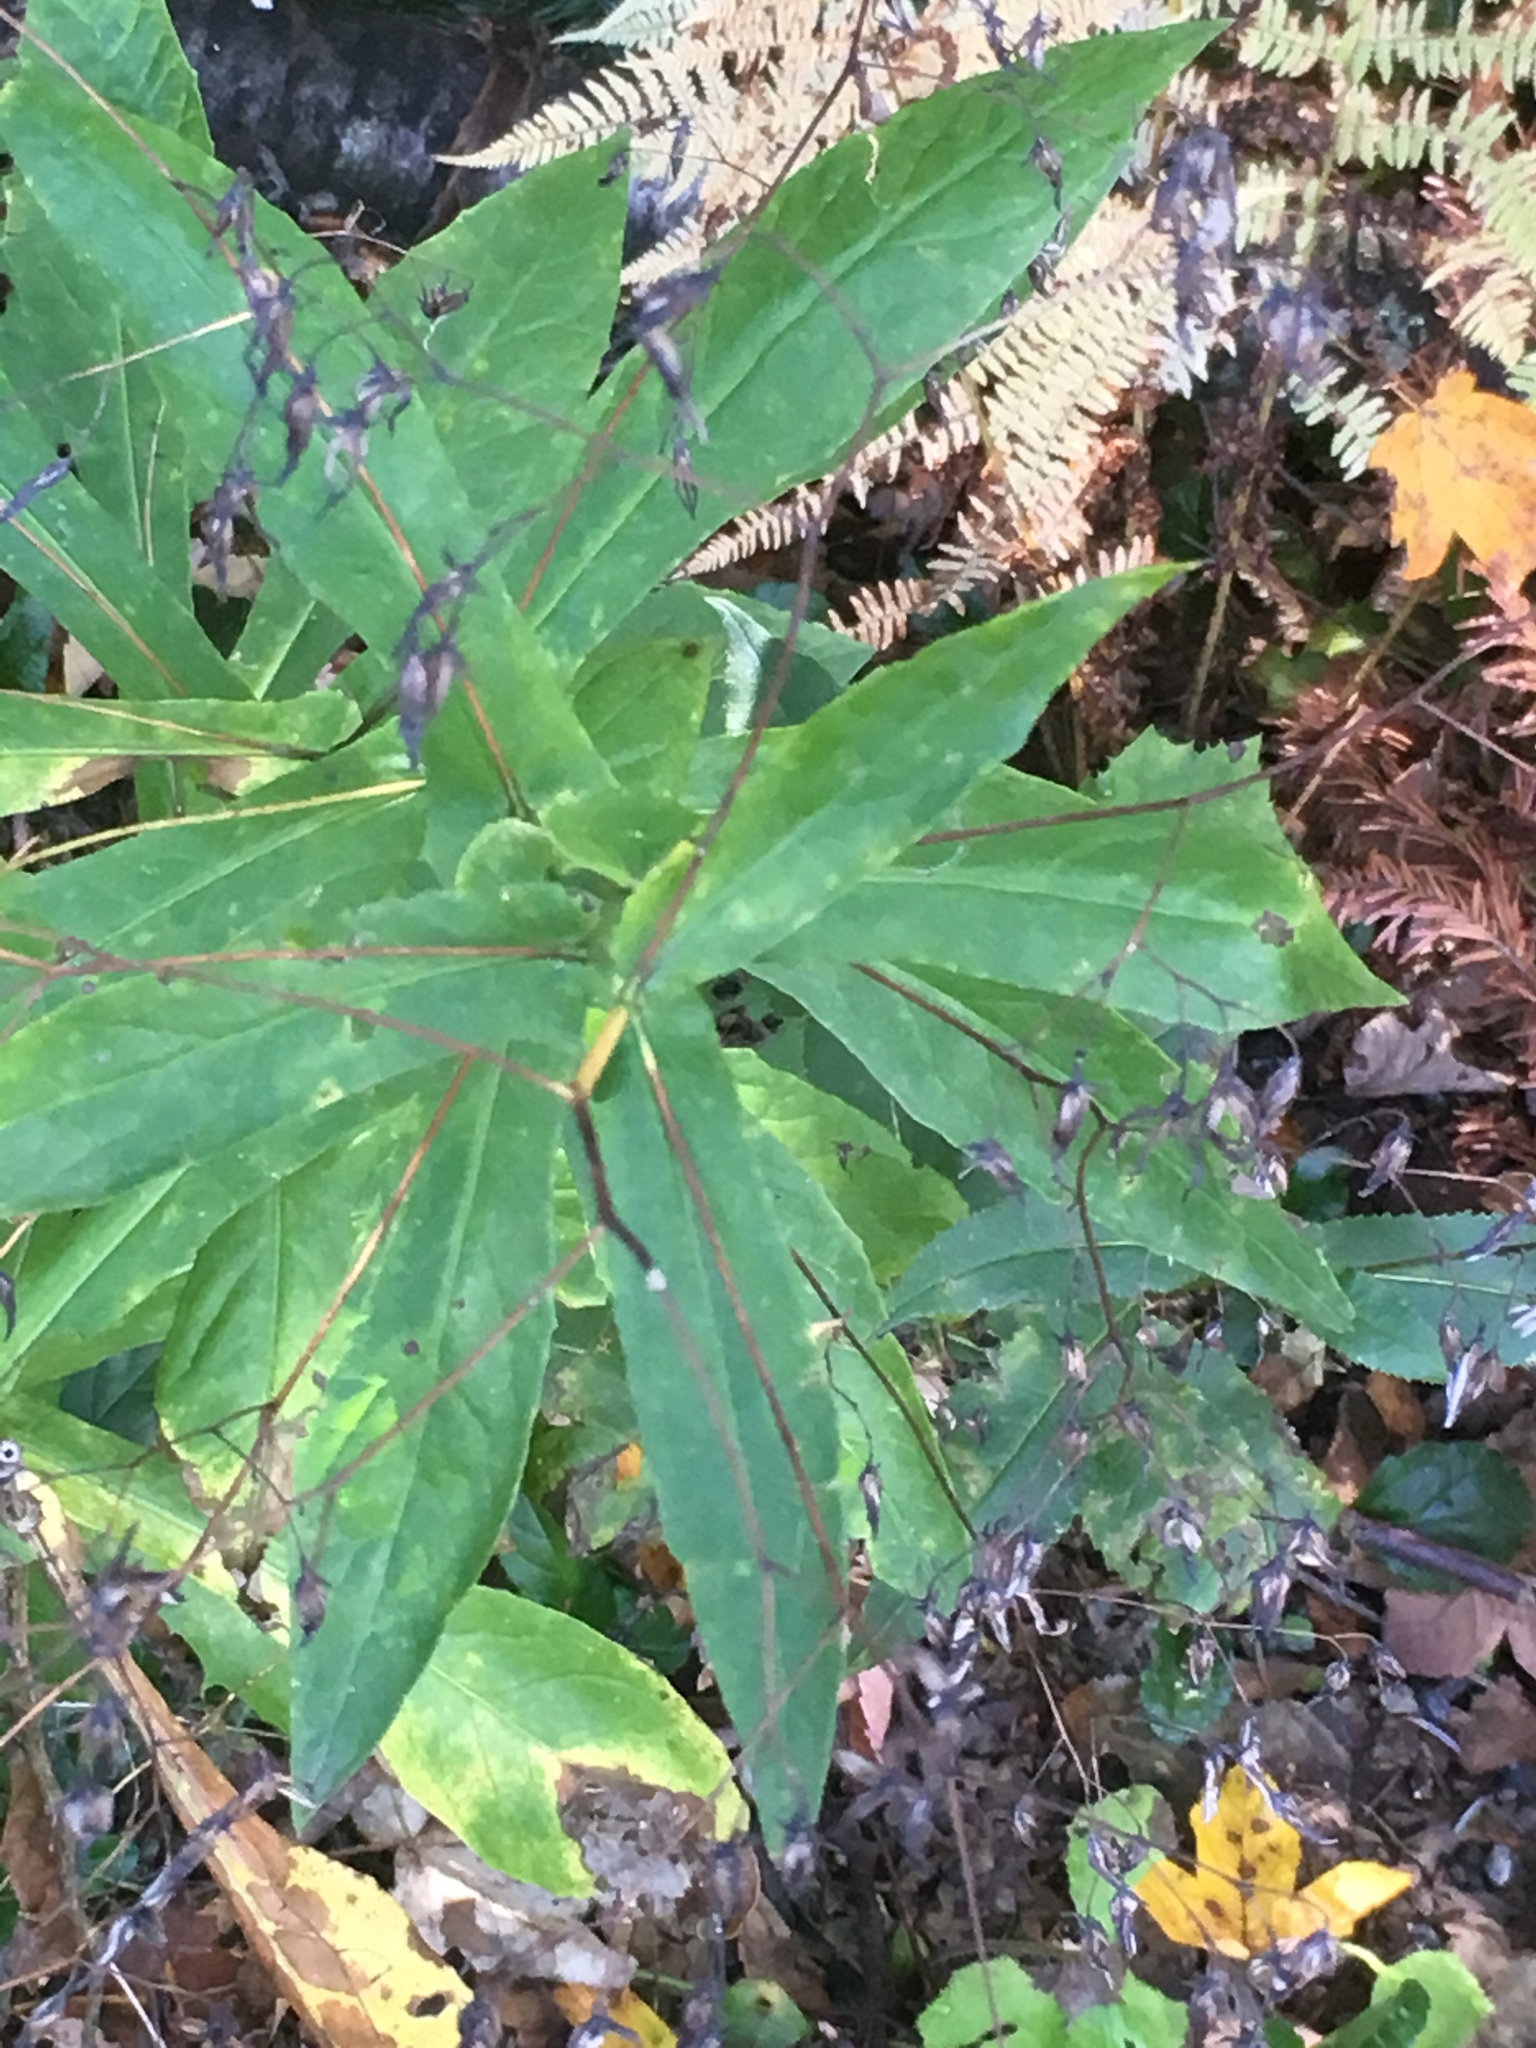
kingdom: Plantae
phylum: Tracheophyta
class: Magnoliopsida
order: Asterales
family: Asteraceae
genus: Prenanthes
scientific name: Prenanthes purpurea
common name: Purple lettuce
